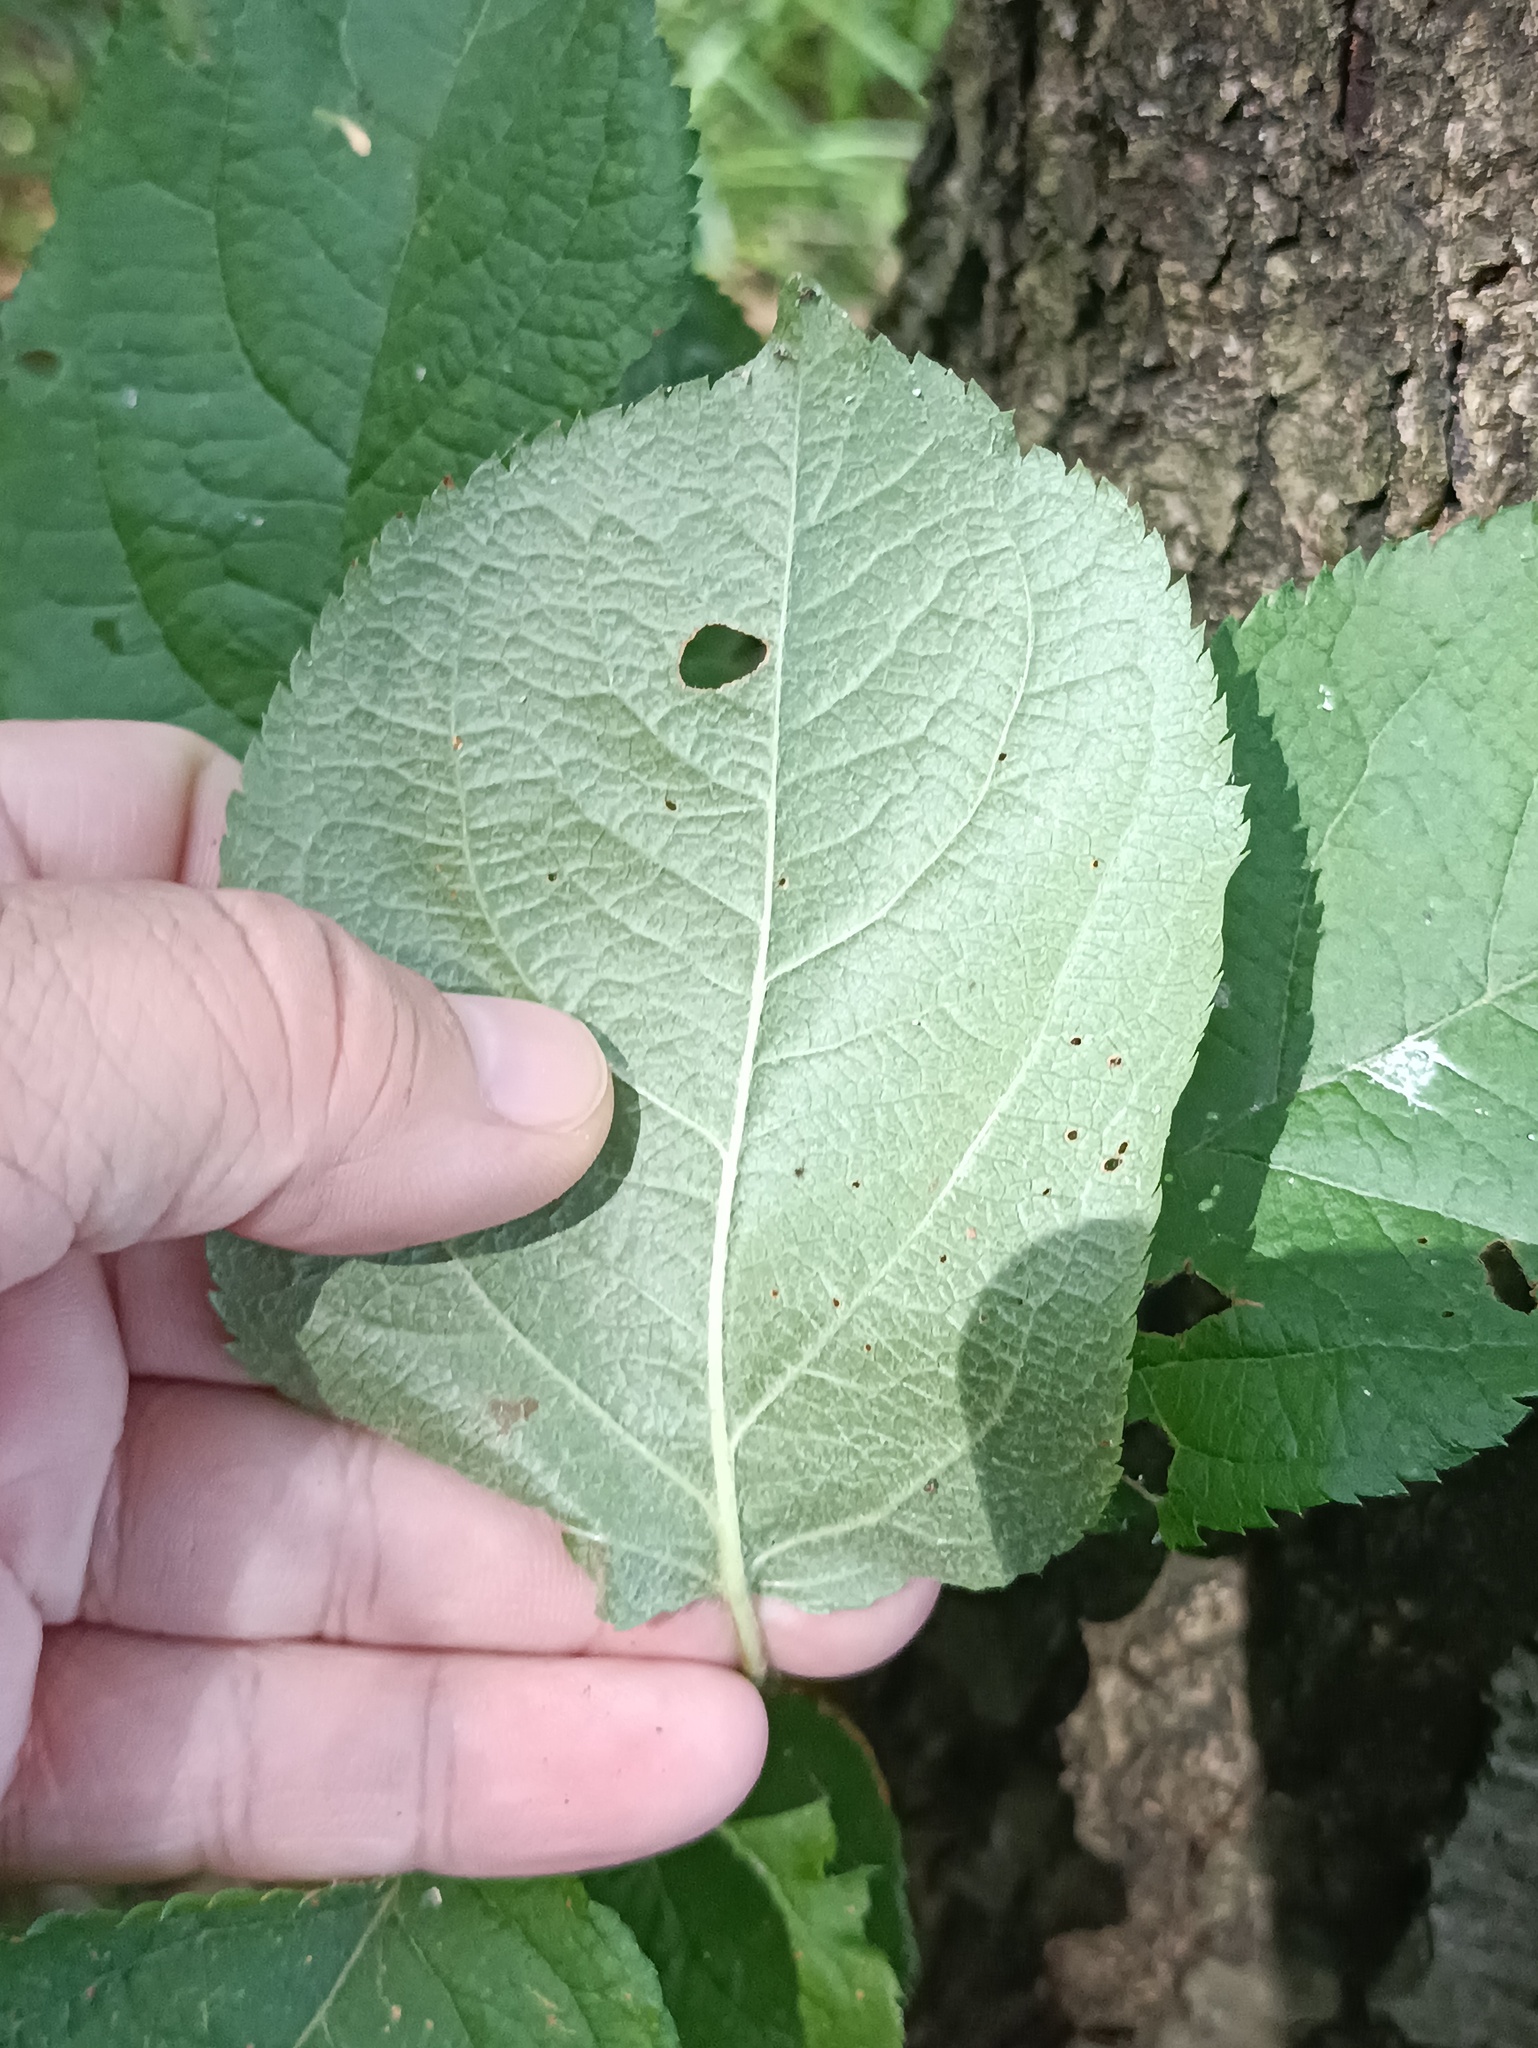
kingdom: Plantae
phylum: Tracheophyta
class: Magnoliopsida
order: Rosales
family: Rosaceae
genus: Malus
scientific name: Malus domestica
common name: Apple
